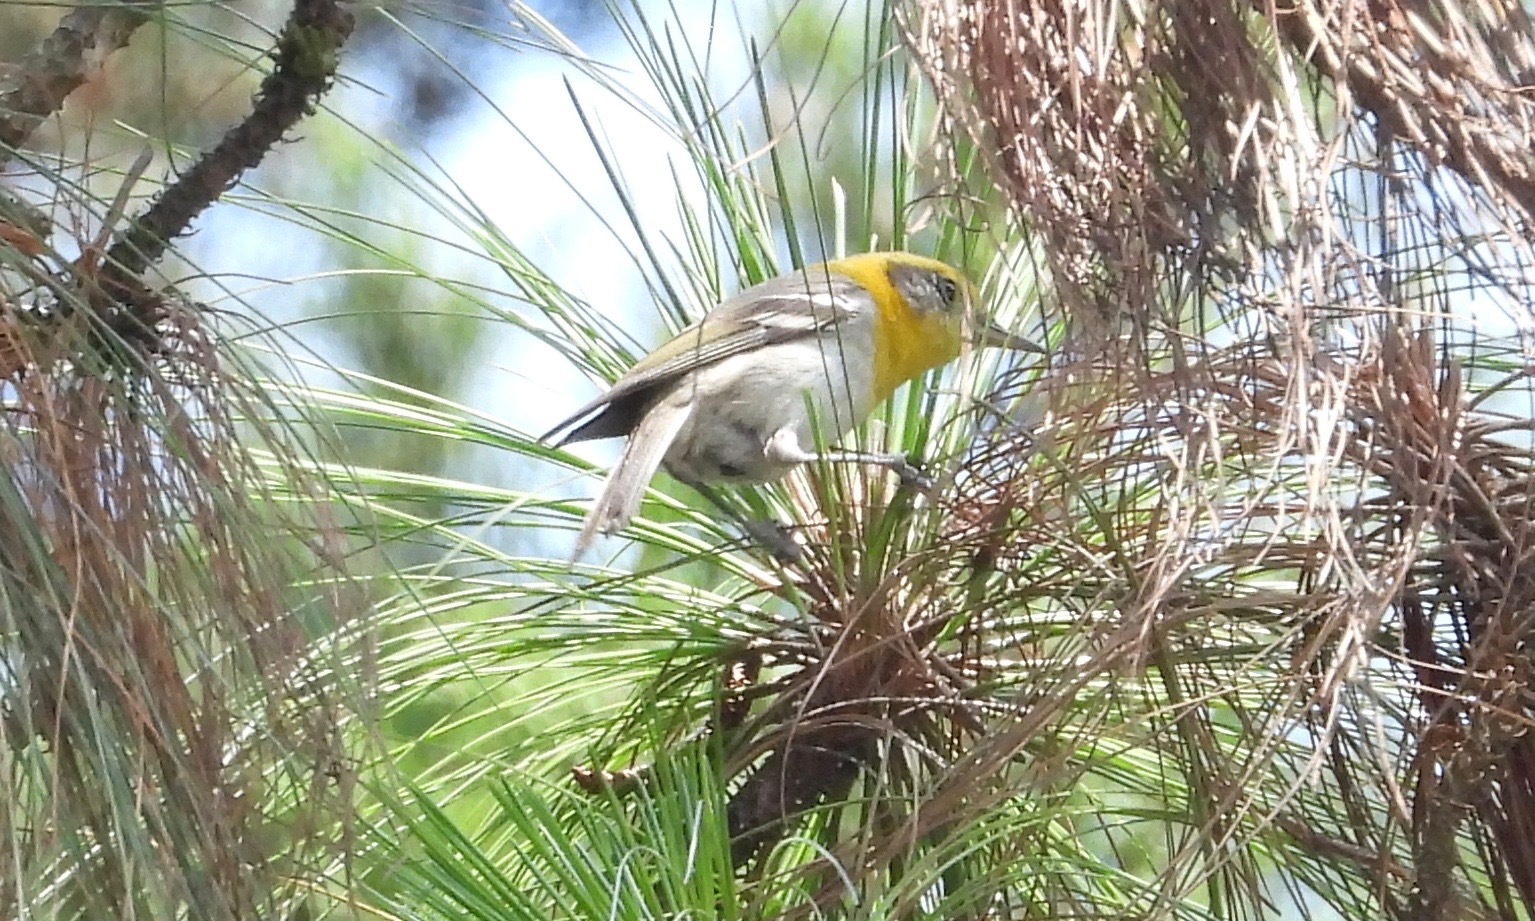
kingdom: Animalia
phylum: Chordata
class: Aves
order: Passeriformes
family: Peucedramidae
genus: Peucedramus
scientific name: Peucedramus taeniatus
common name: Olive warbler
